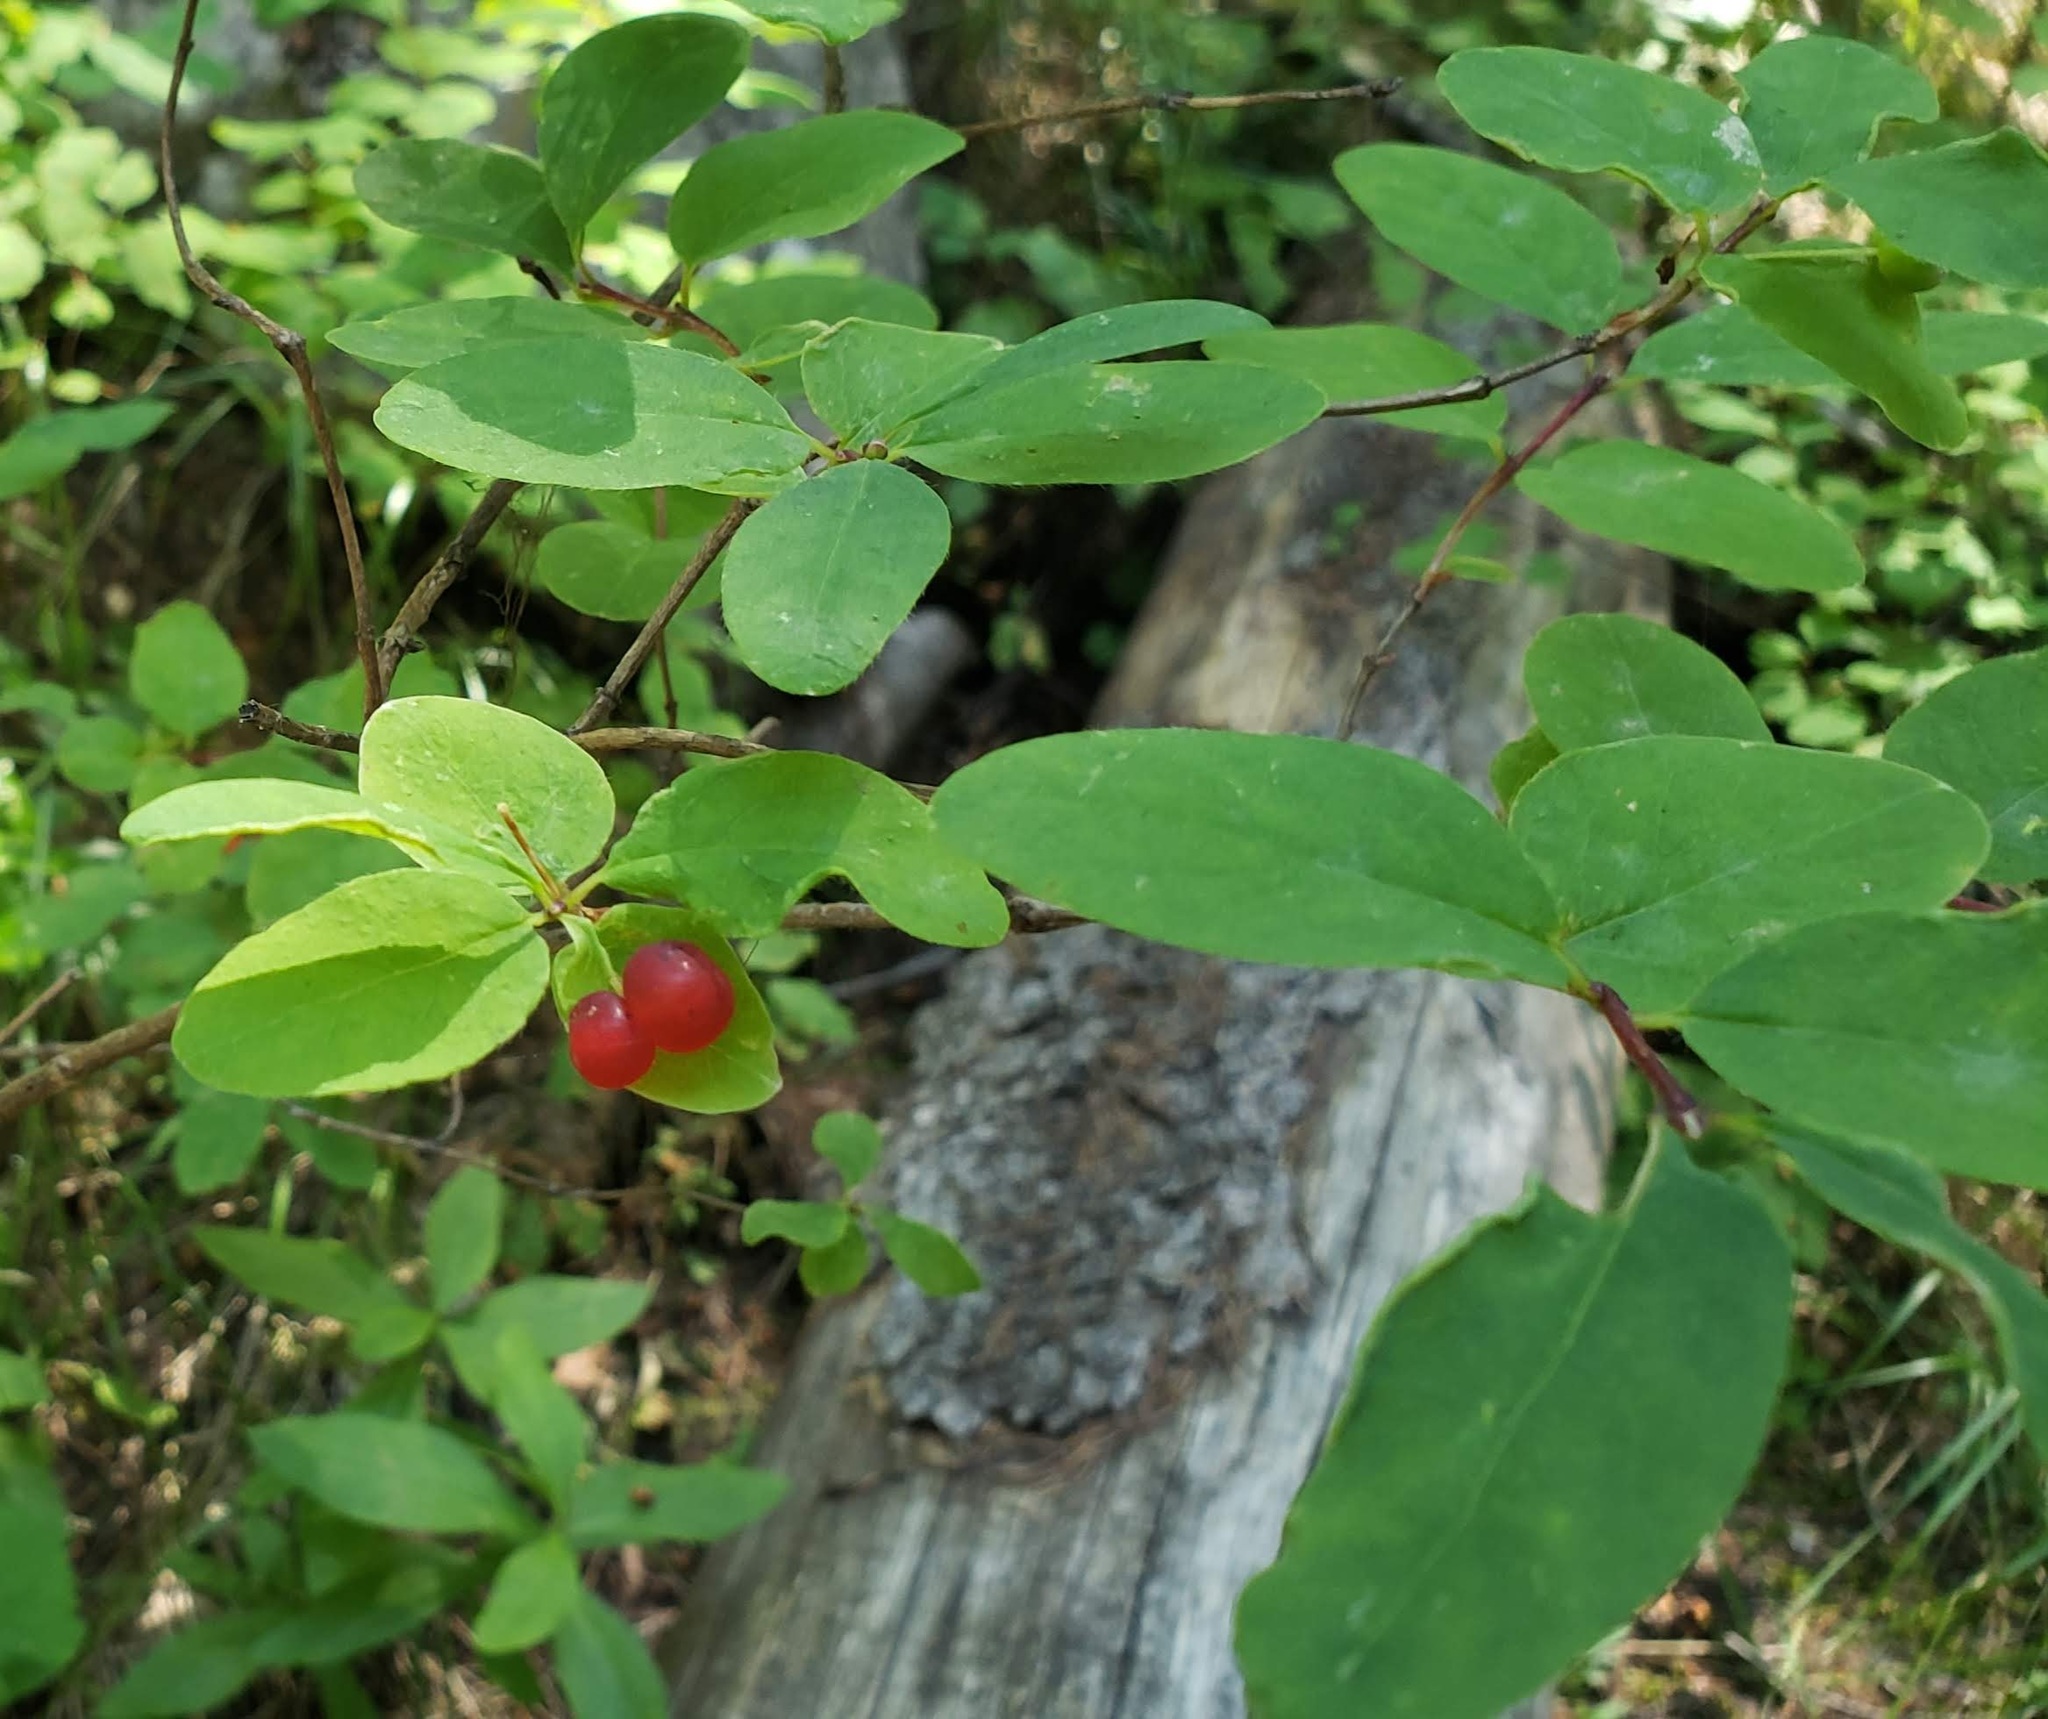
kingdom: Plantae
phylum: Tracheophyta
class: Magnoliopsida
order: Dipsacales
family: Caprifoliaceae
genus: Lonicera
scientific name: Lonicera utahensis
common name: Utah honeysuckle
